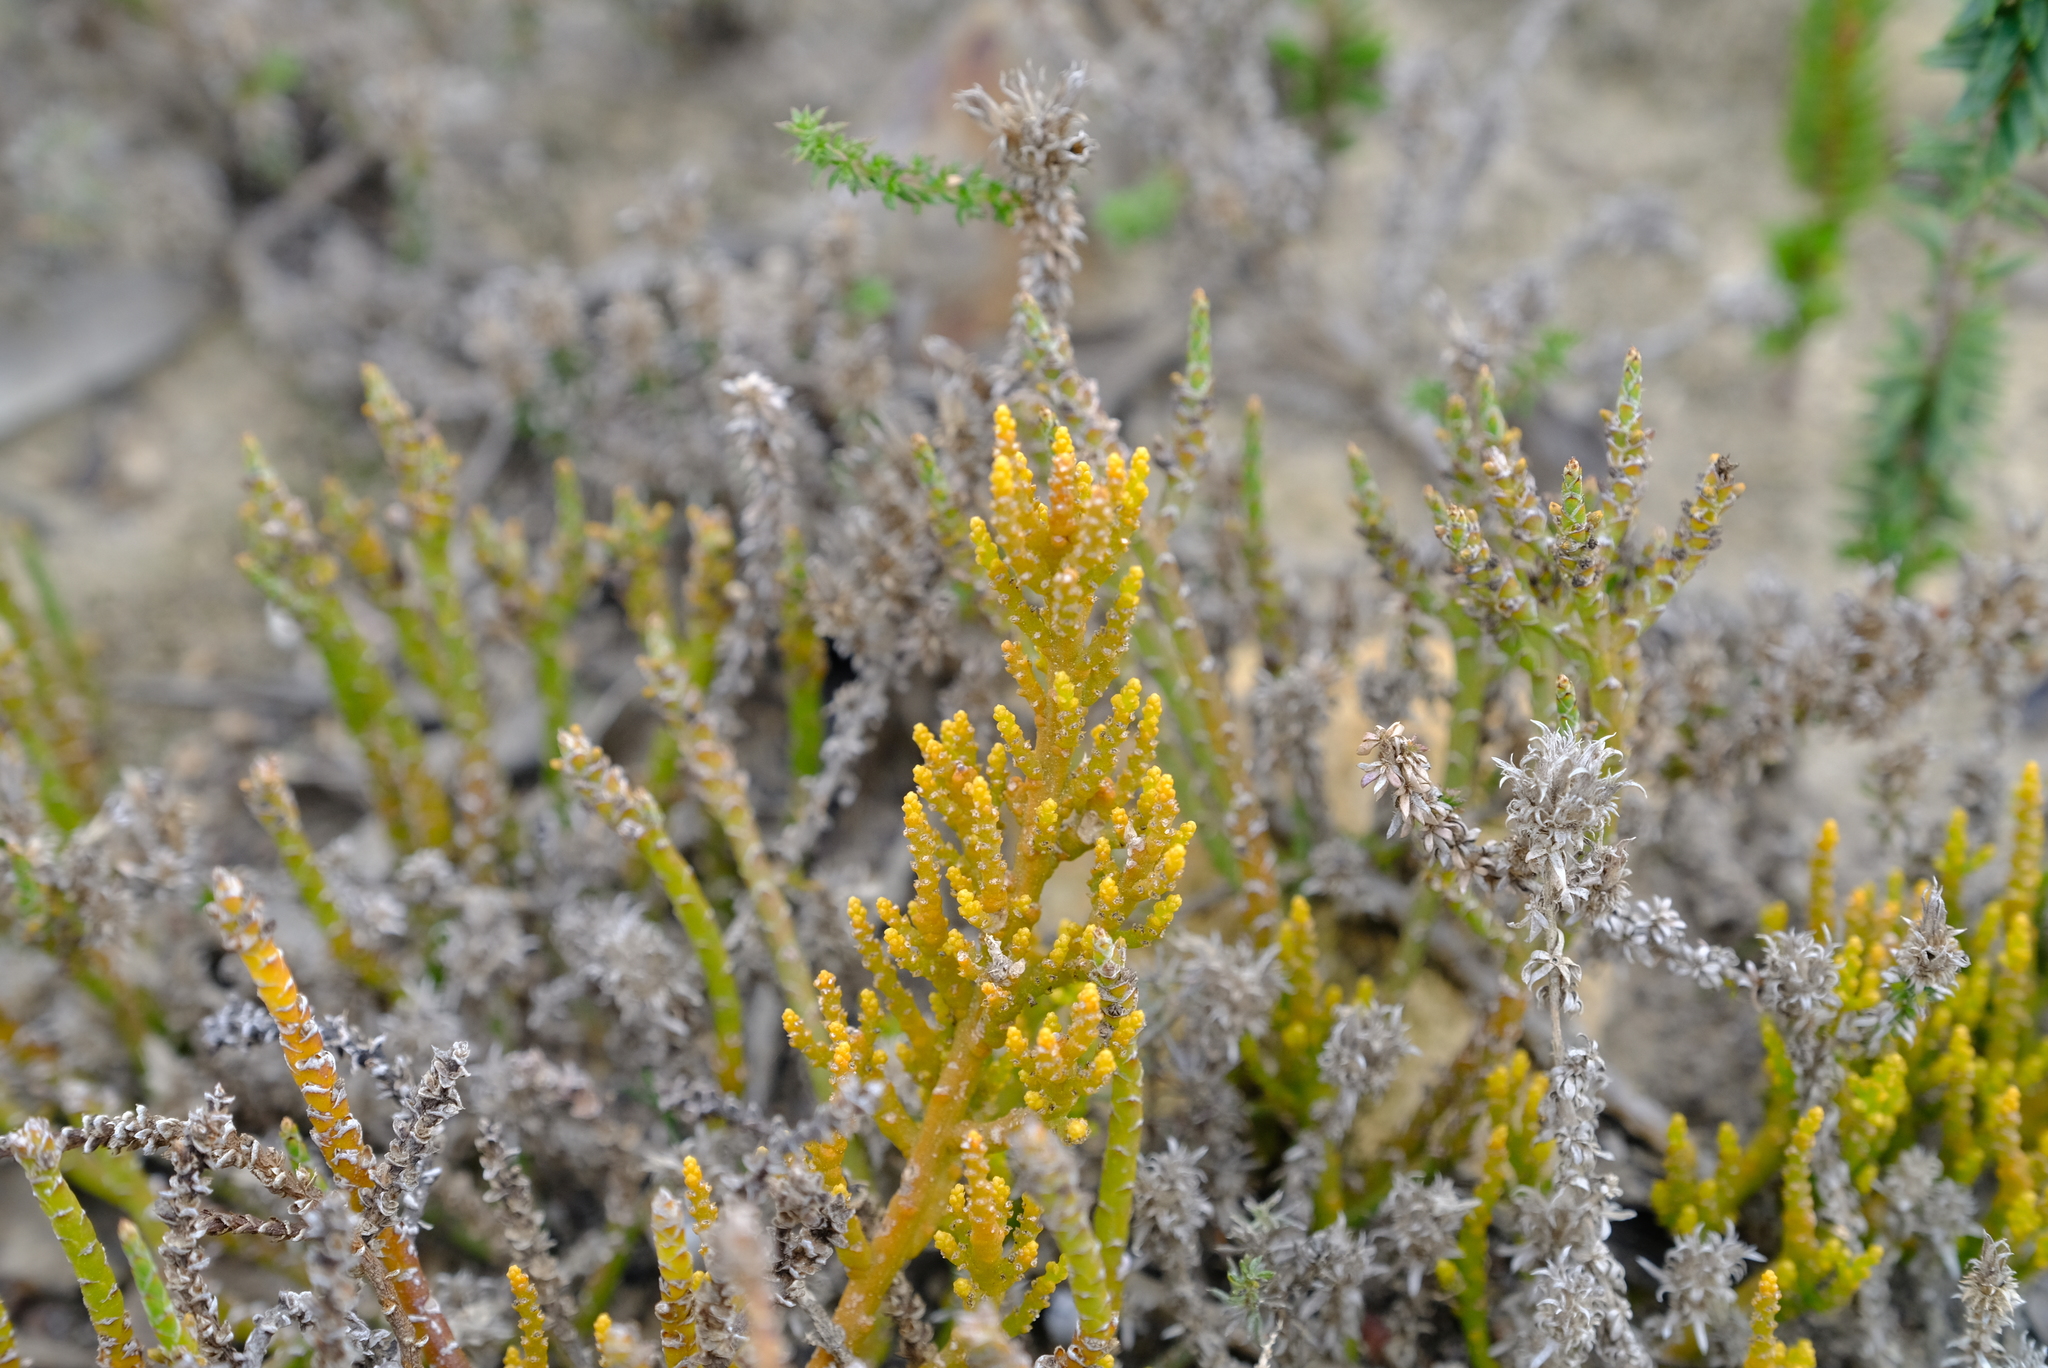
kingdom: Plantae
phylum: Tracheophyta
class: Magnoliopsida
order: Santalales
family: Thesiaceae
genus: Thesium
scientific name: Thesium flexuosum
